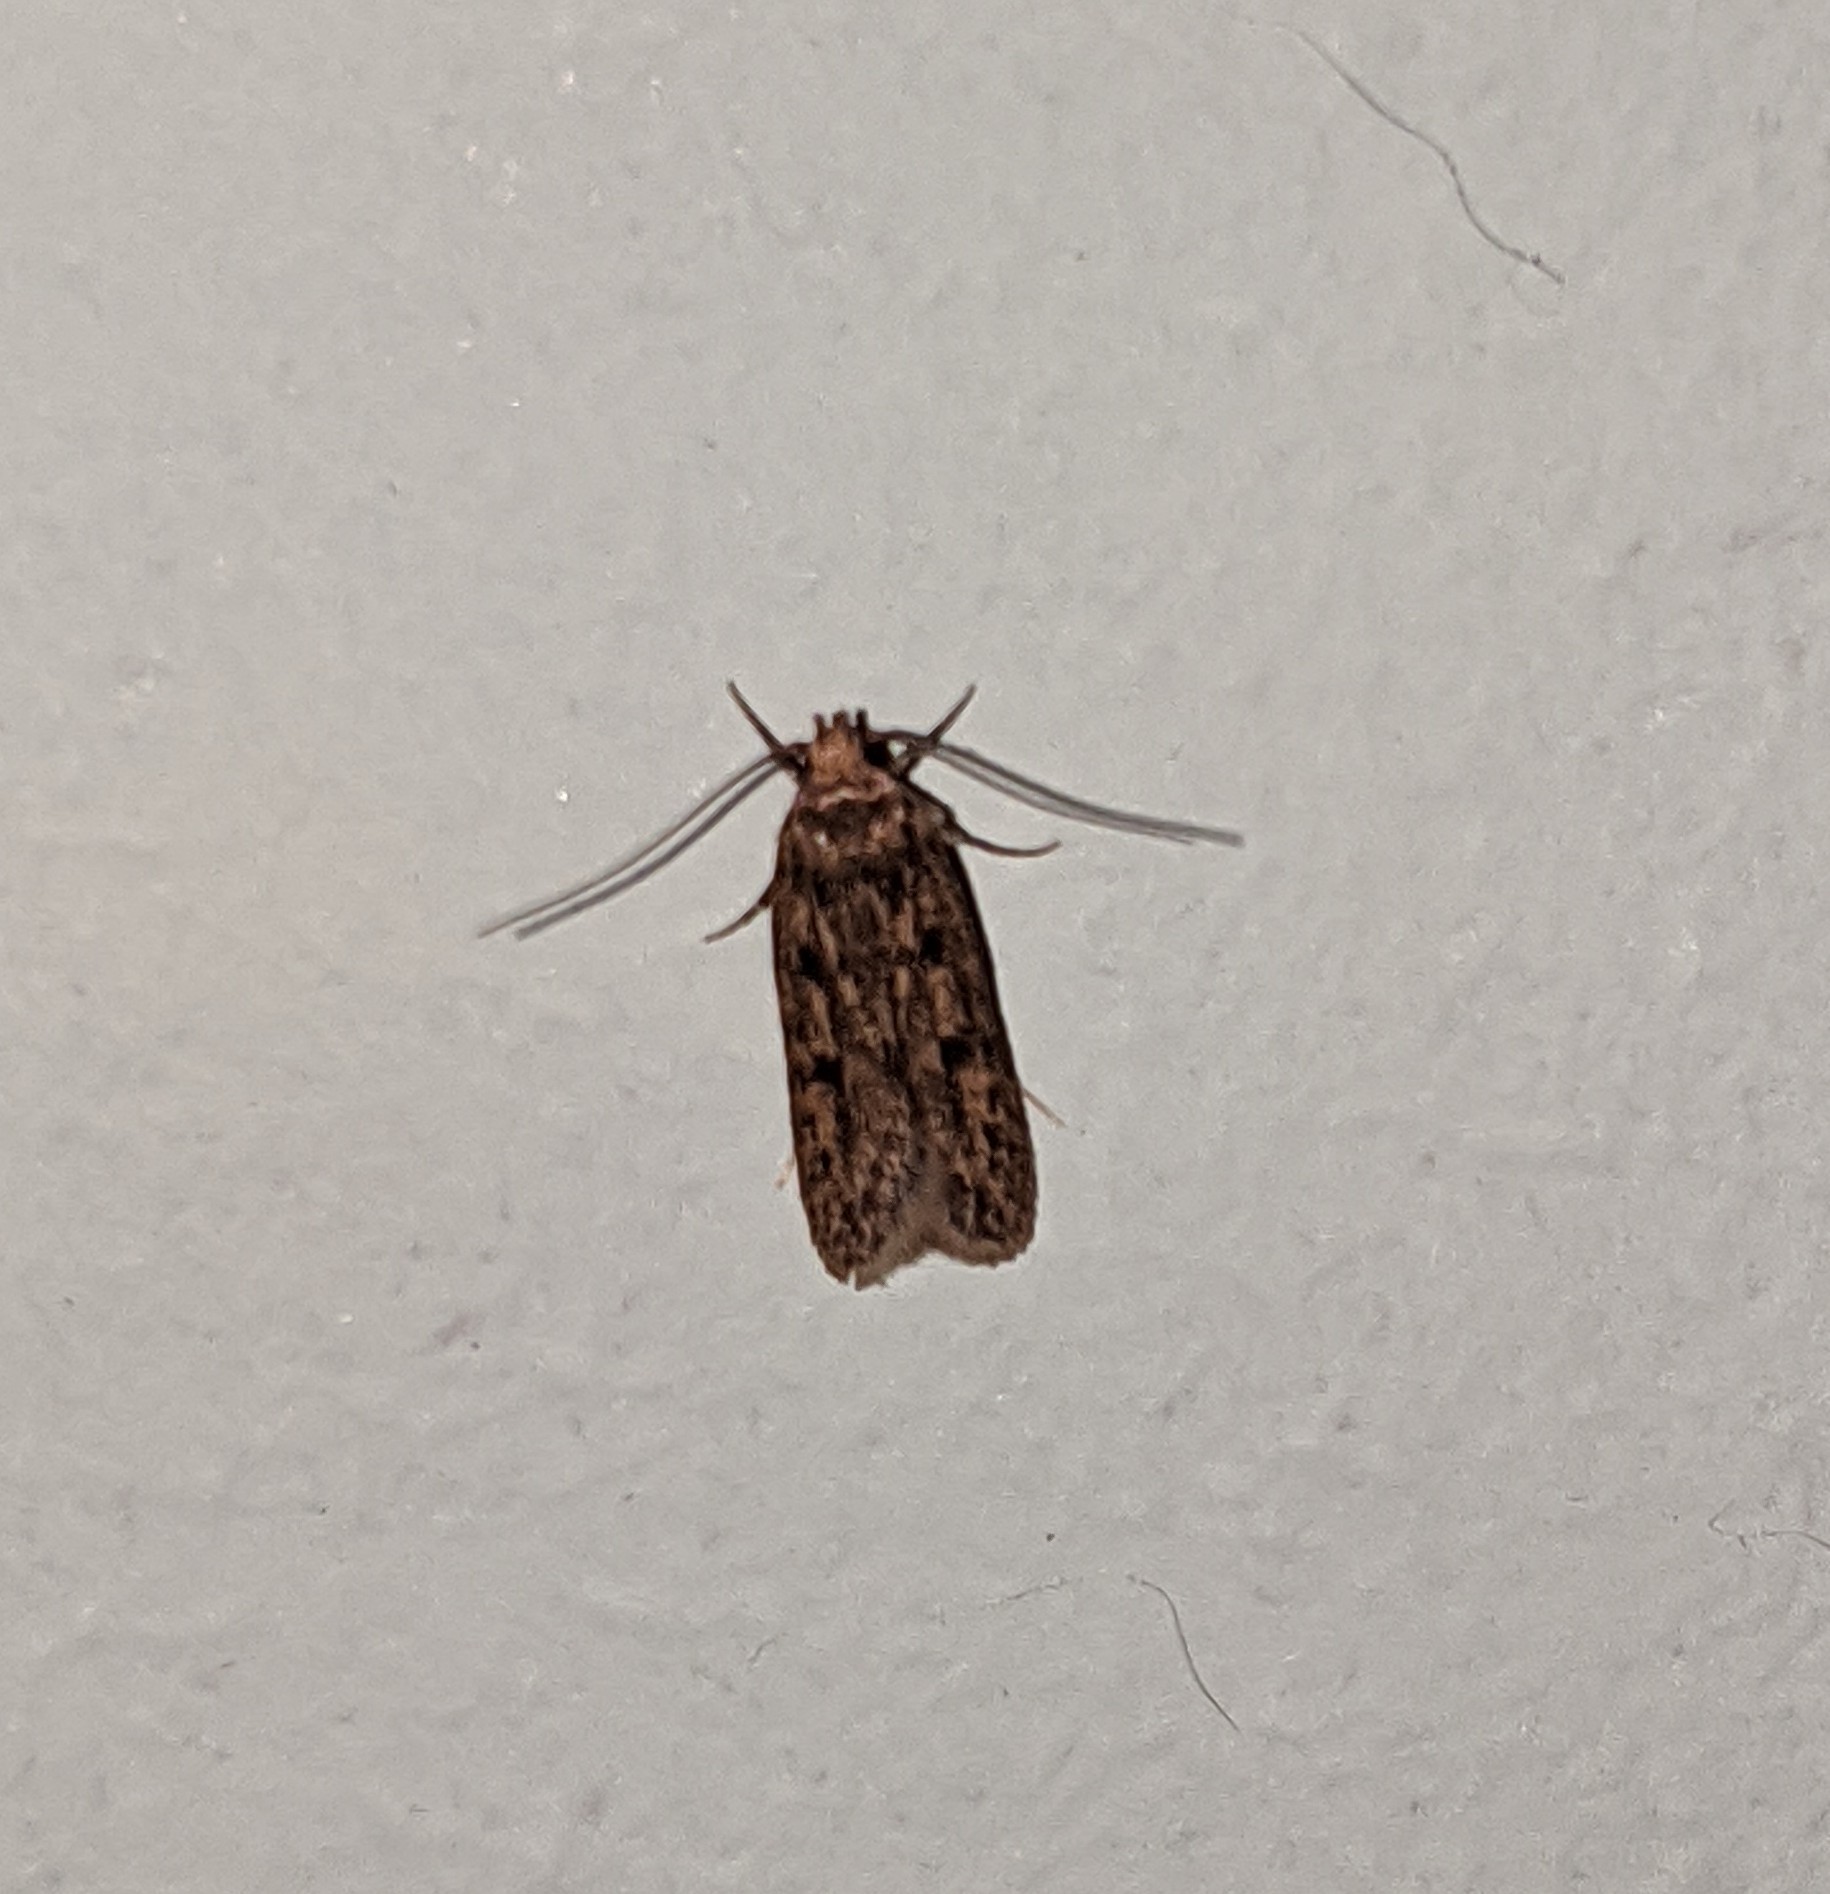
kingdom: Animalia
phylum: Arthropoda
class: Insecta
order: Lepidoptera
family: Oecophoridae
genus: Hofmannophila
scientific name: Hofmannophila pseudospretella
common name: Brown house moth
